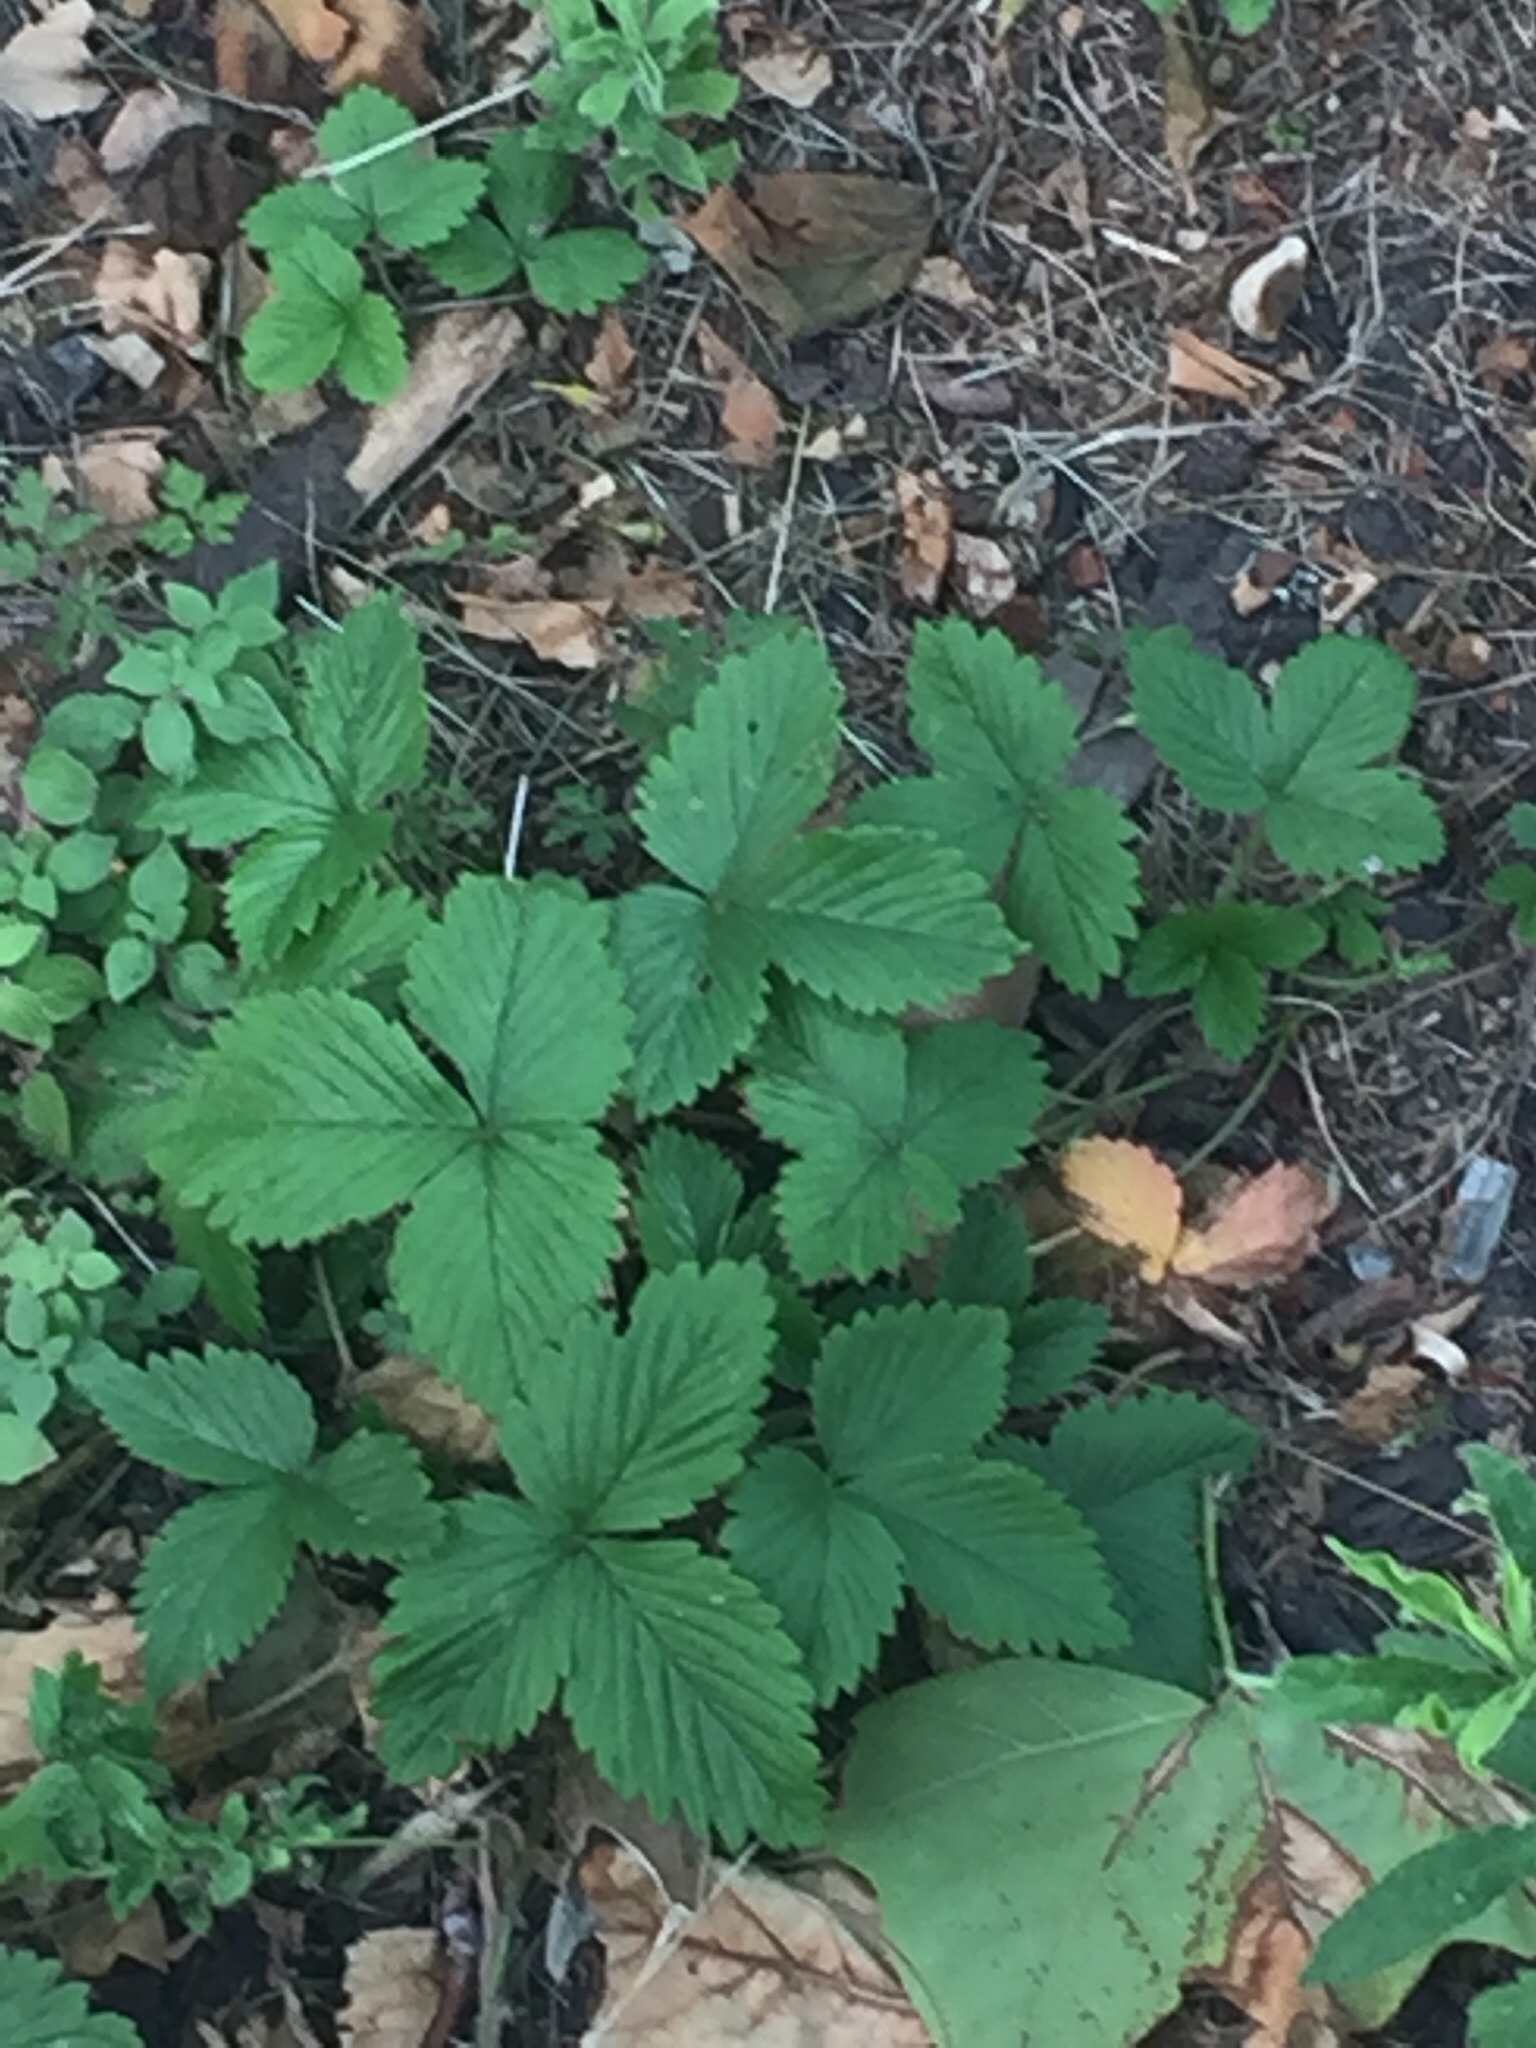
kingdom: Plantae
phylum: Tracheophyta
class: Magnoliopsida
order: Rosales
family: Rosaceae
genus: Fragaria
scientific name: Fragaria vesca
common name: Wild strawberry
